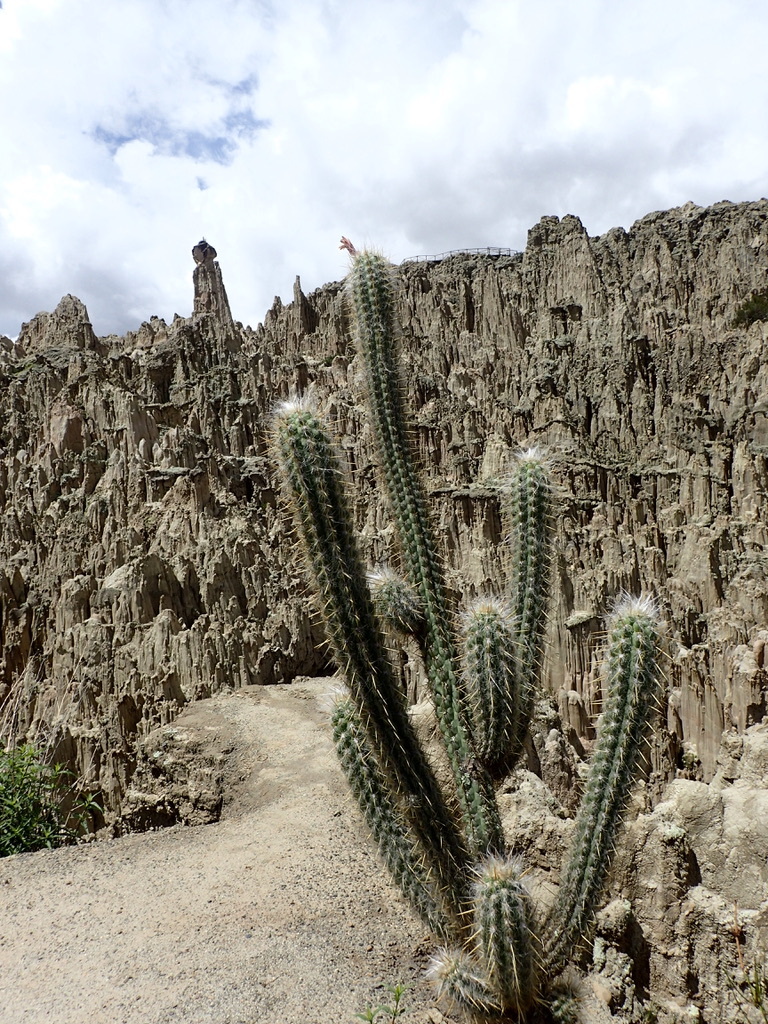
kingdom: Plantae
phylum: Tracheophyta
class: Magnoliopsida
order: Caryophyllales
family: Cactaceae
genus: Corryocactus
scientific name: Corryocactus melanotrichus
